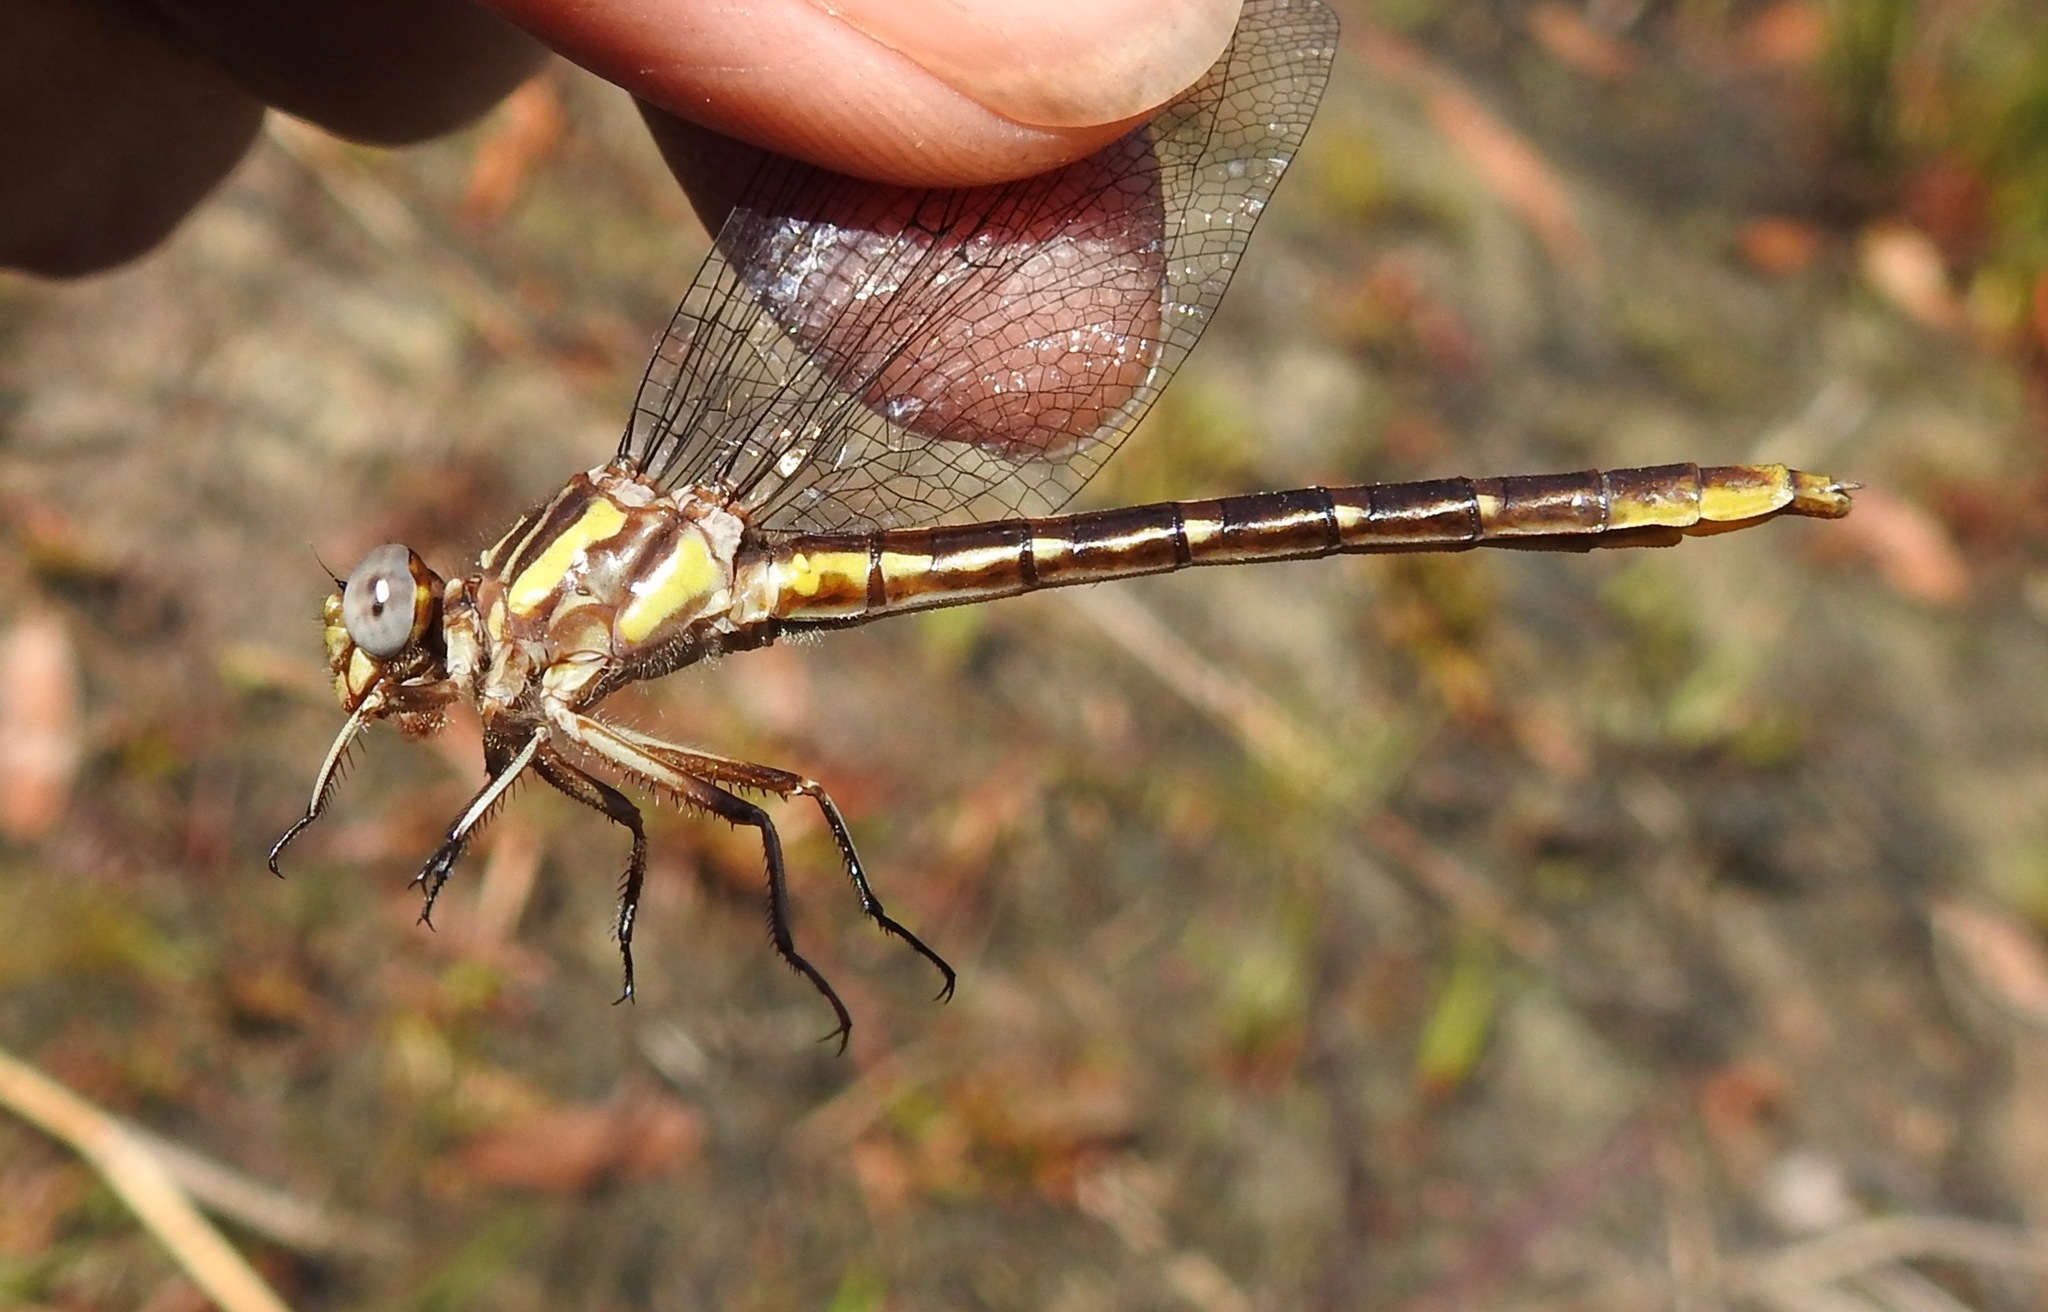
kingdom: Animalia
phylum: Arthropoda
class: Insecta
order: Odonata
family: Gomphidae
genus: Phanogomphus
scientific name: Phanogomphus exilis
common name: Lancet clubtail
